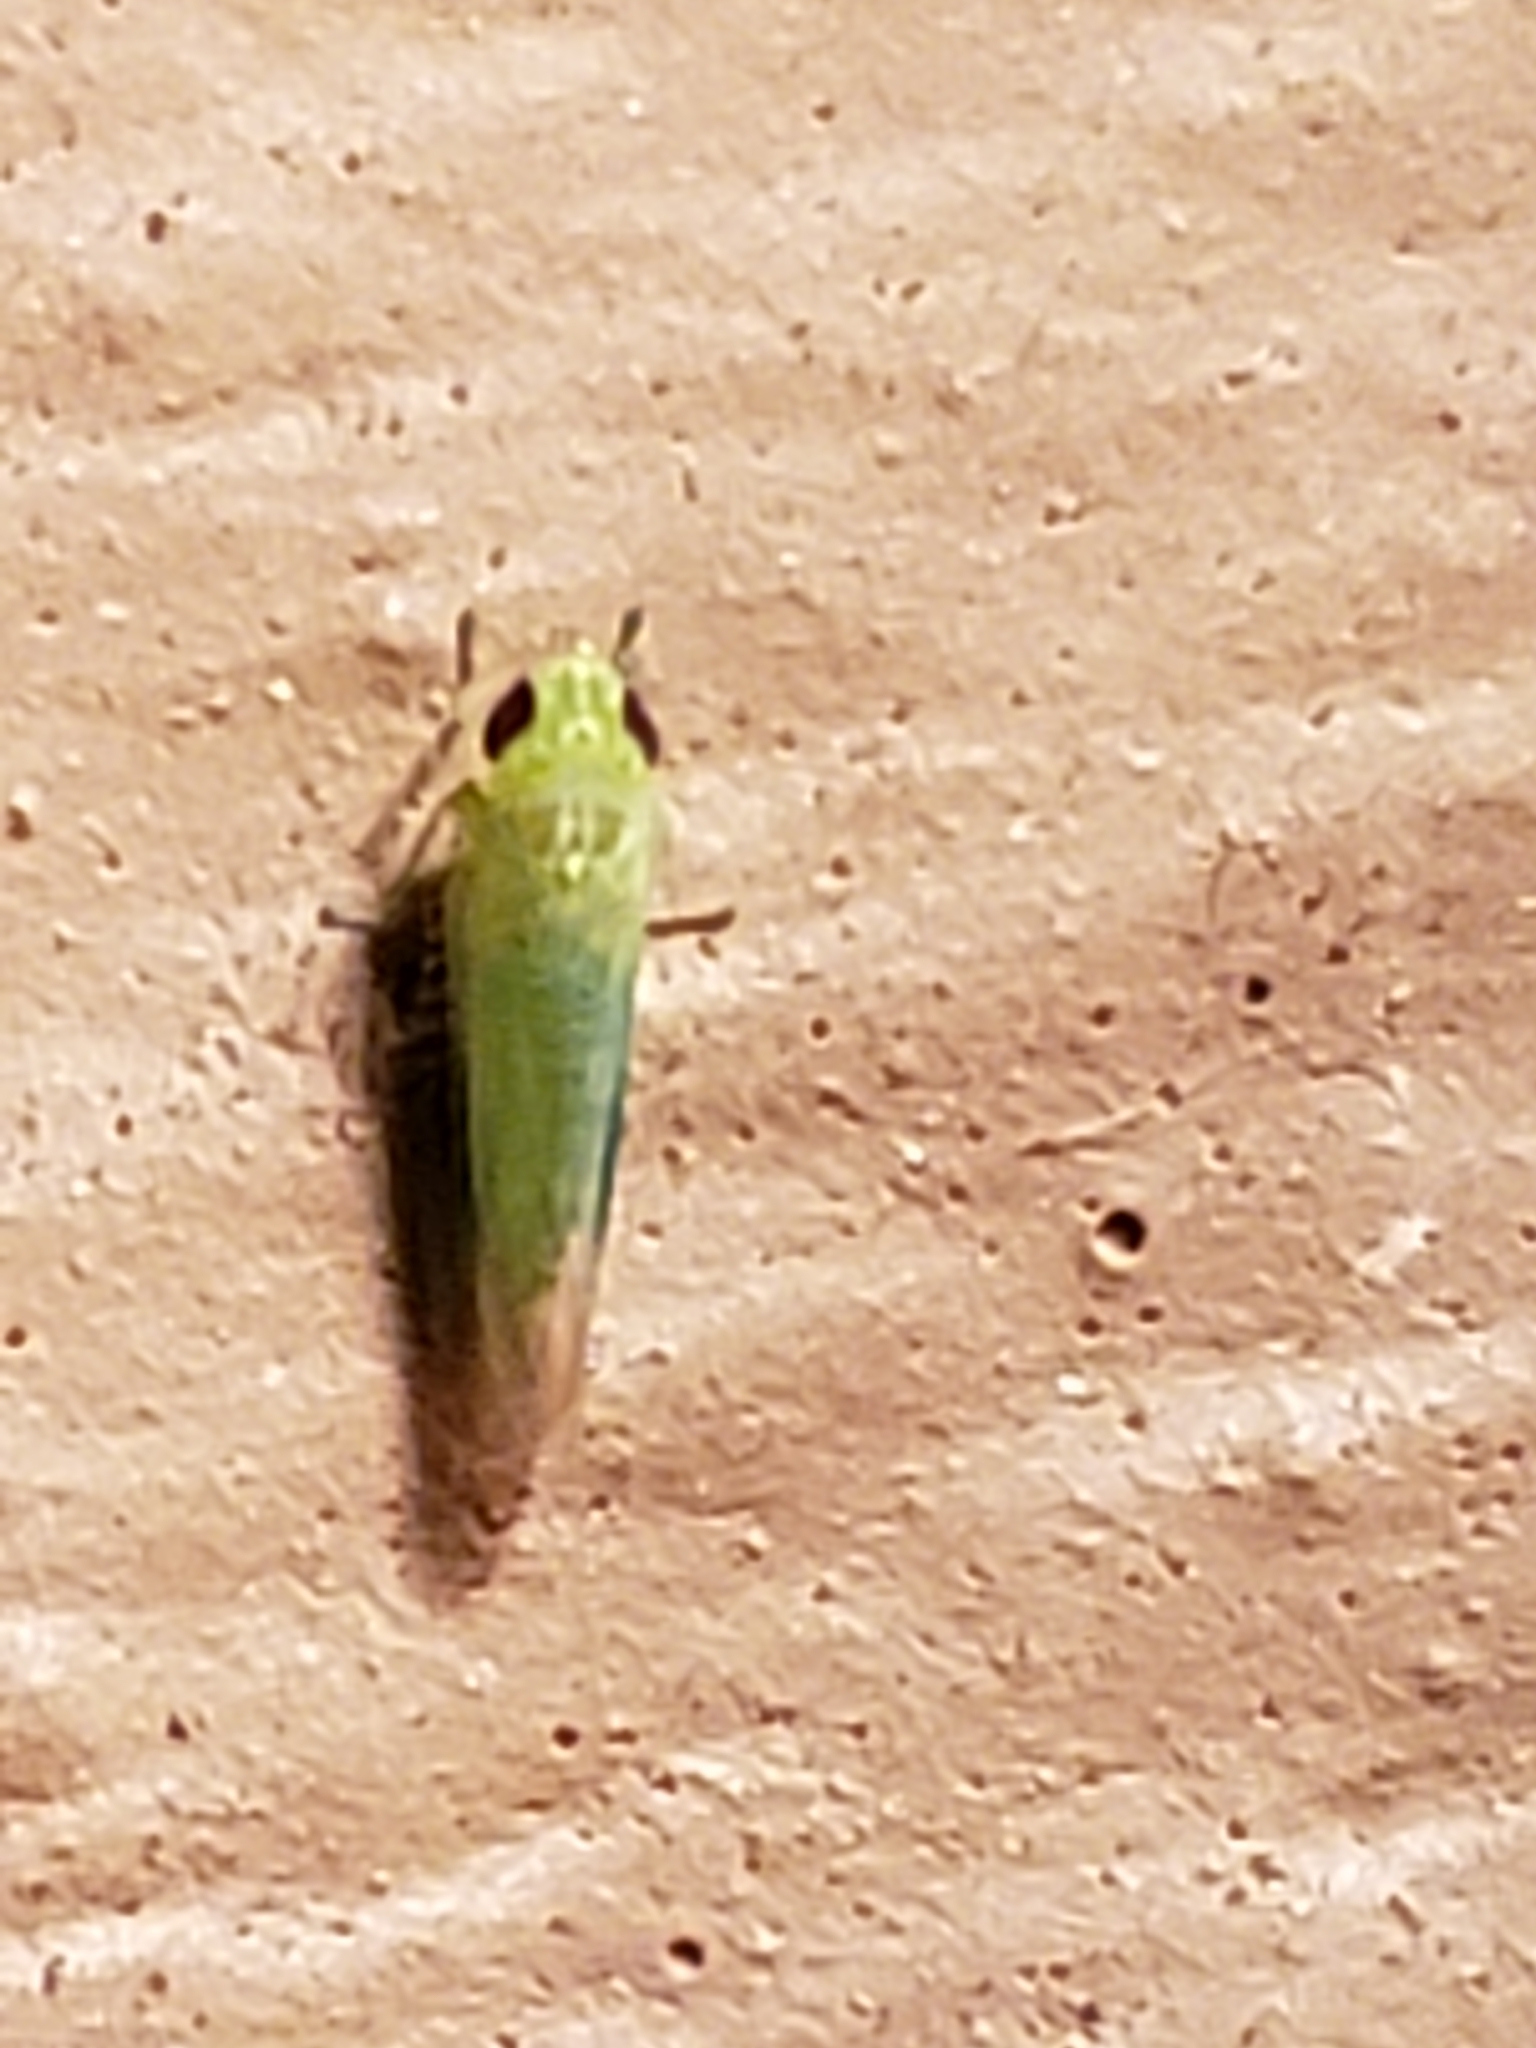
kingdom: Animalia
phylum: Arthropoda
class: Insecta
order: Hemiptera
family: Cicadellidae
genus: Empoasca
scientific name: Empoasca fabae
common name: Potato leafhopper
